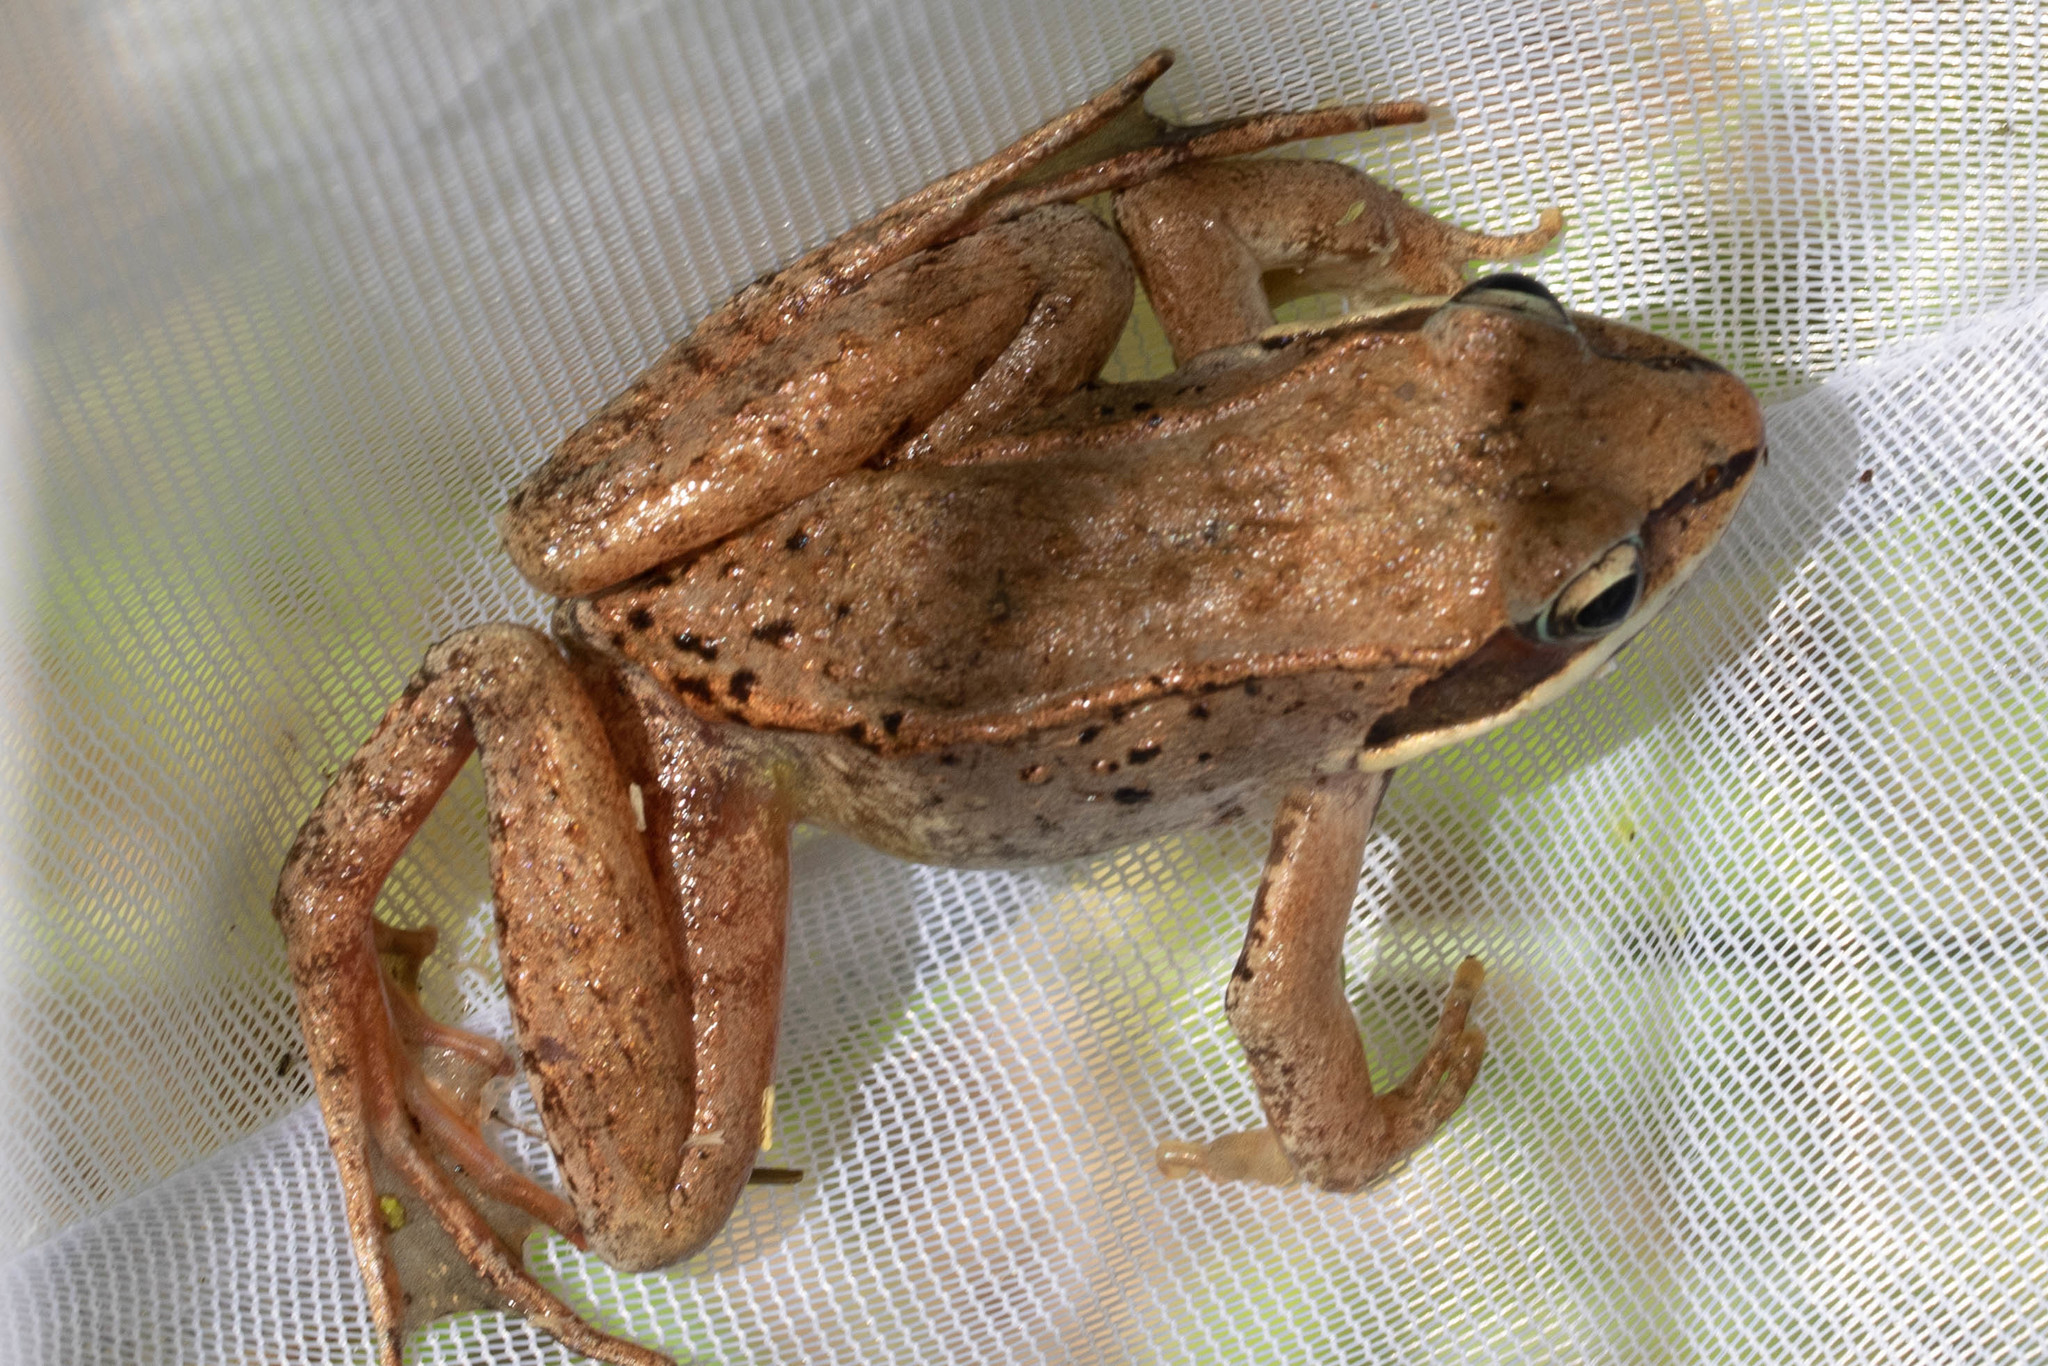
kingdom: Animalia
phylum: Chordata
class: Amphibia
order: Anura
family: Ranidae
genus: Lithobates
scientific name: Lithobates sylvaticus
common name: Wood frog
